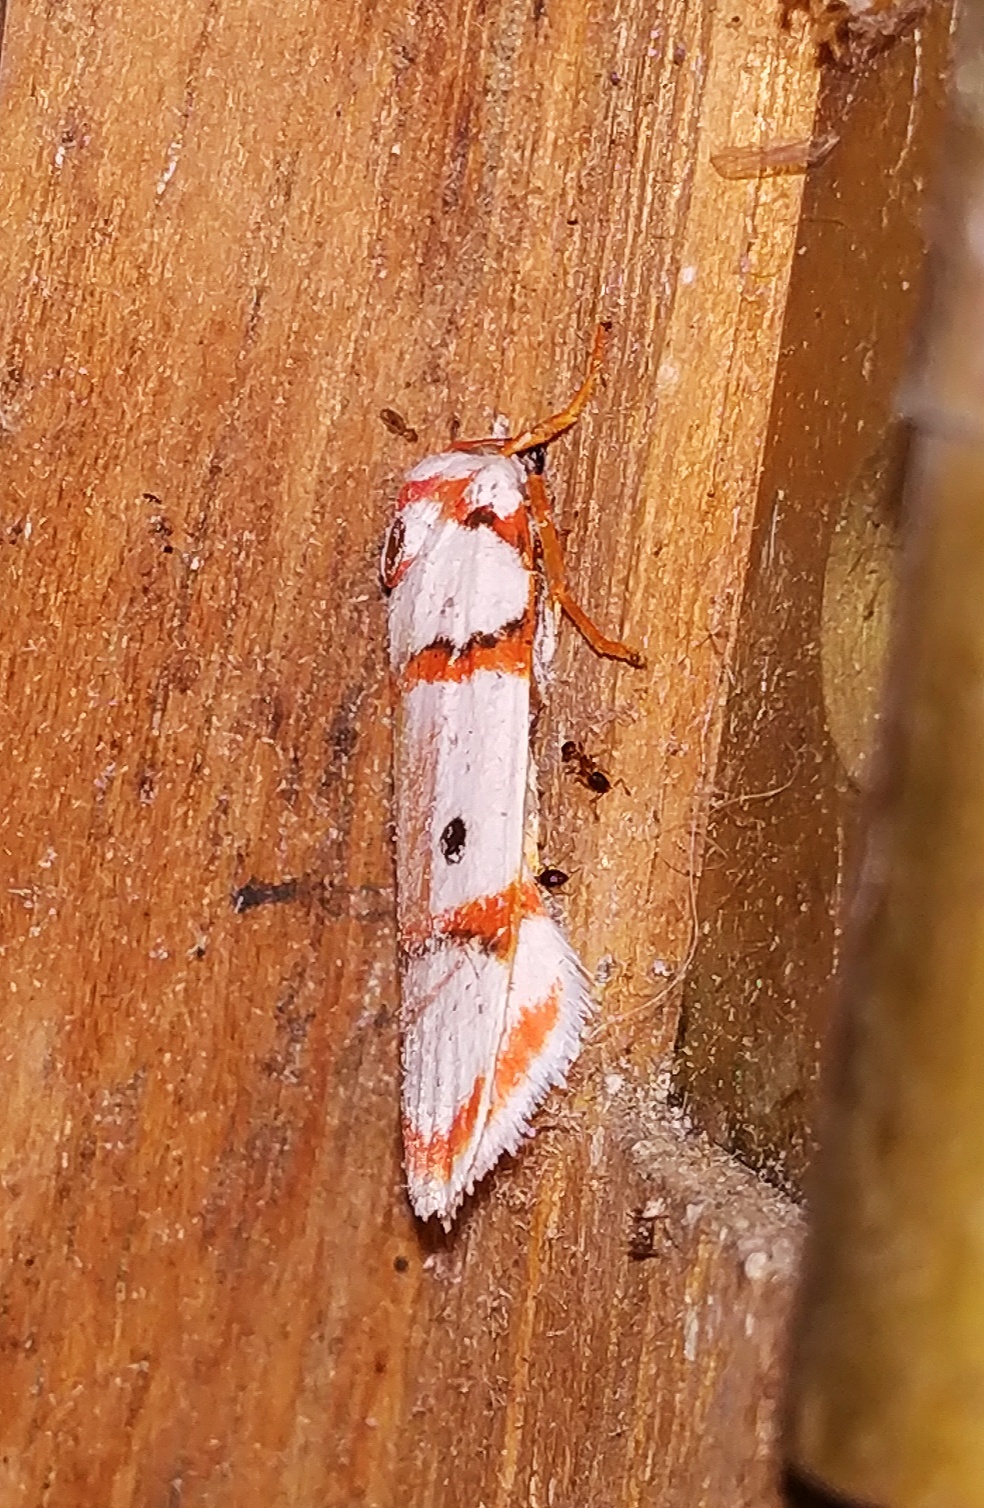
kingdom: Animalia
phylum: Arthropoda
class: Insecta
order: Lepidoptera
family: Erebidae
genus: Cyana
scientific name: Cyana peregrina
